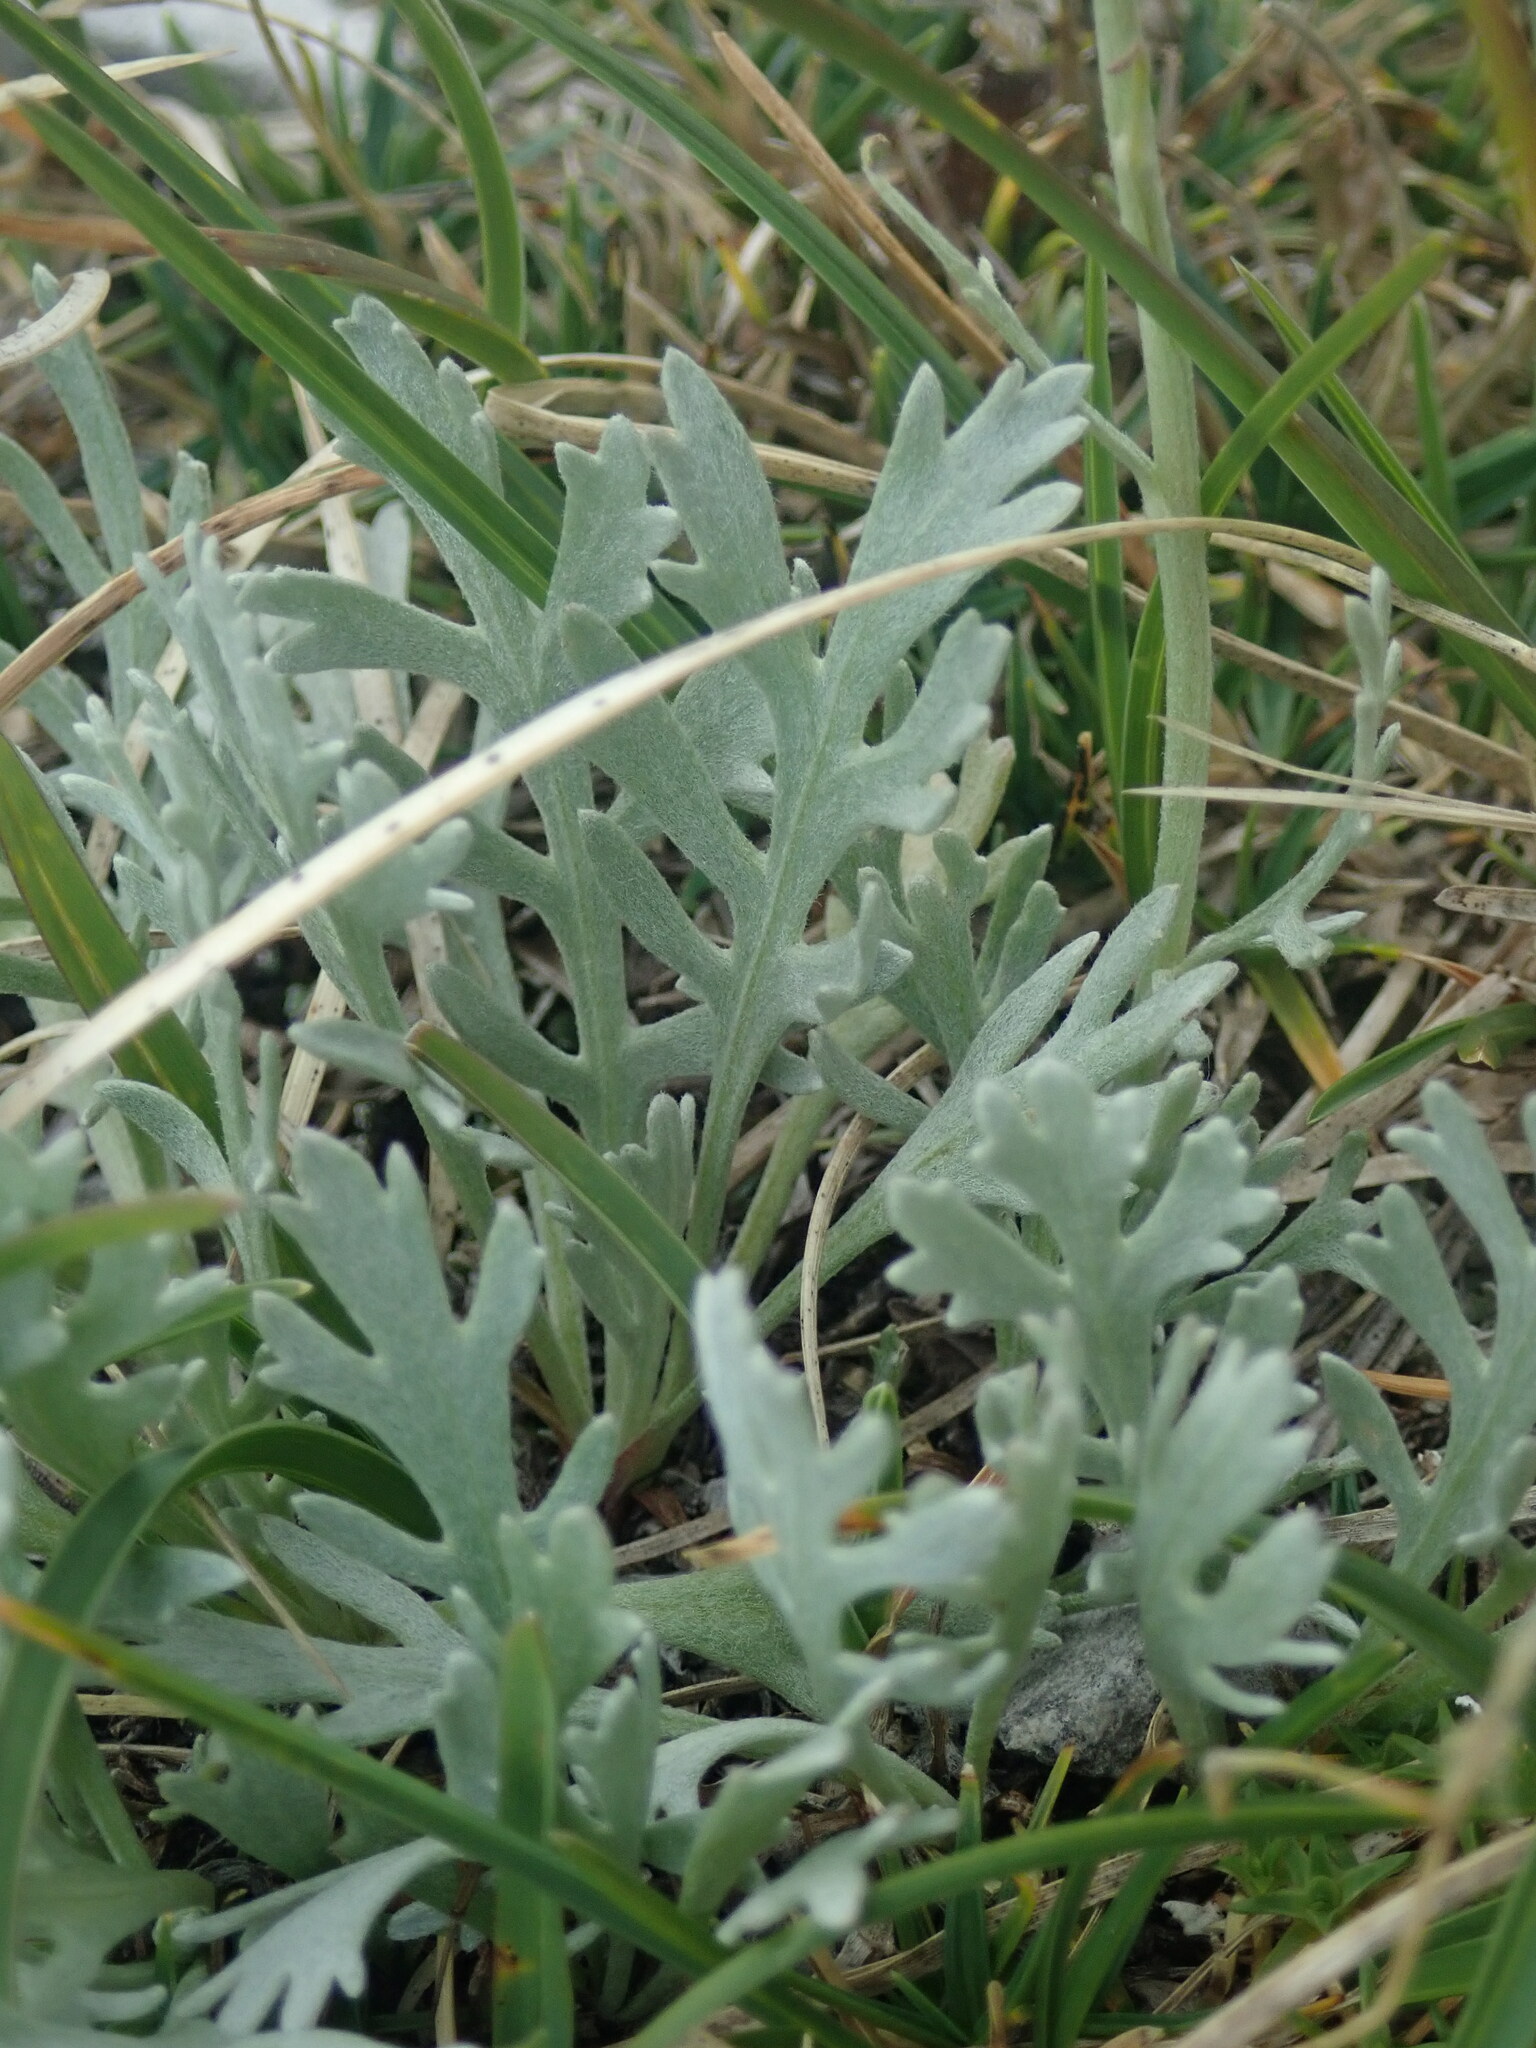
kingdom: Plantae
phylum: Tracheophyta
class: Magnoliopsida
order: Asterales
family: Asteraceae
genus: Achillea
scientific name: Achillea clavennae
